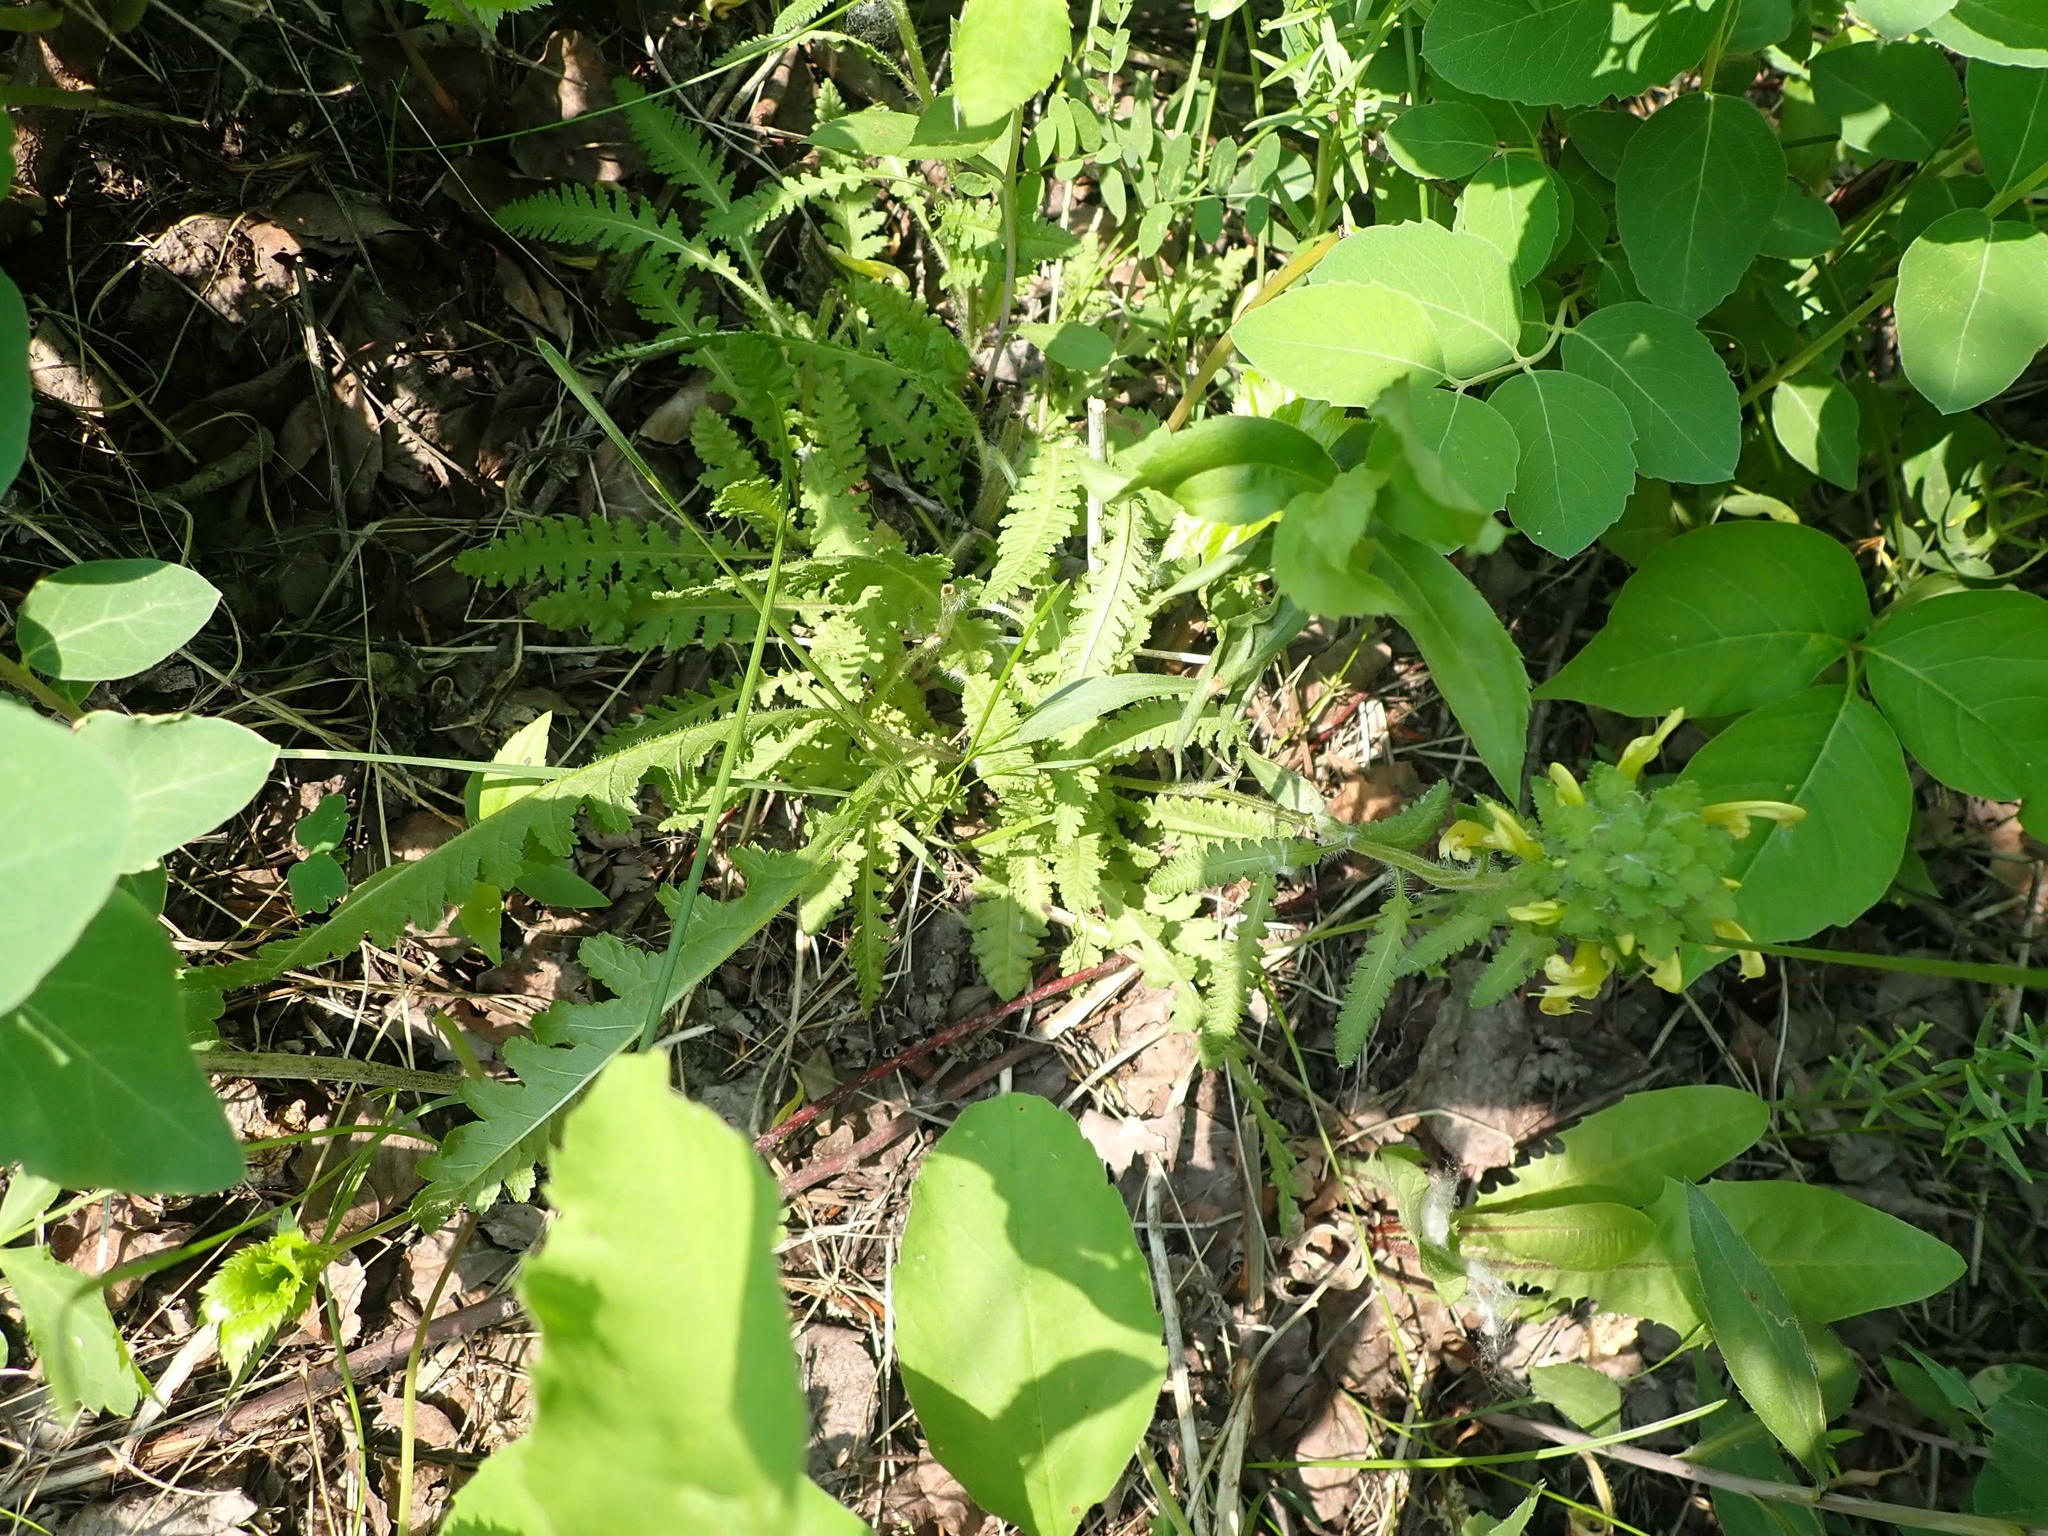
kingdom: Plantae
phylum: Tracheophyta
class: Magnoliopsida
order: Lamiales
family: Orobanchaceae
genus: Pedicularis
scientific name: Pedicularis canadensis
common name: Early lousewort
